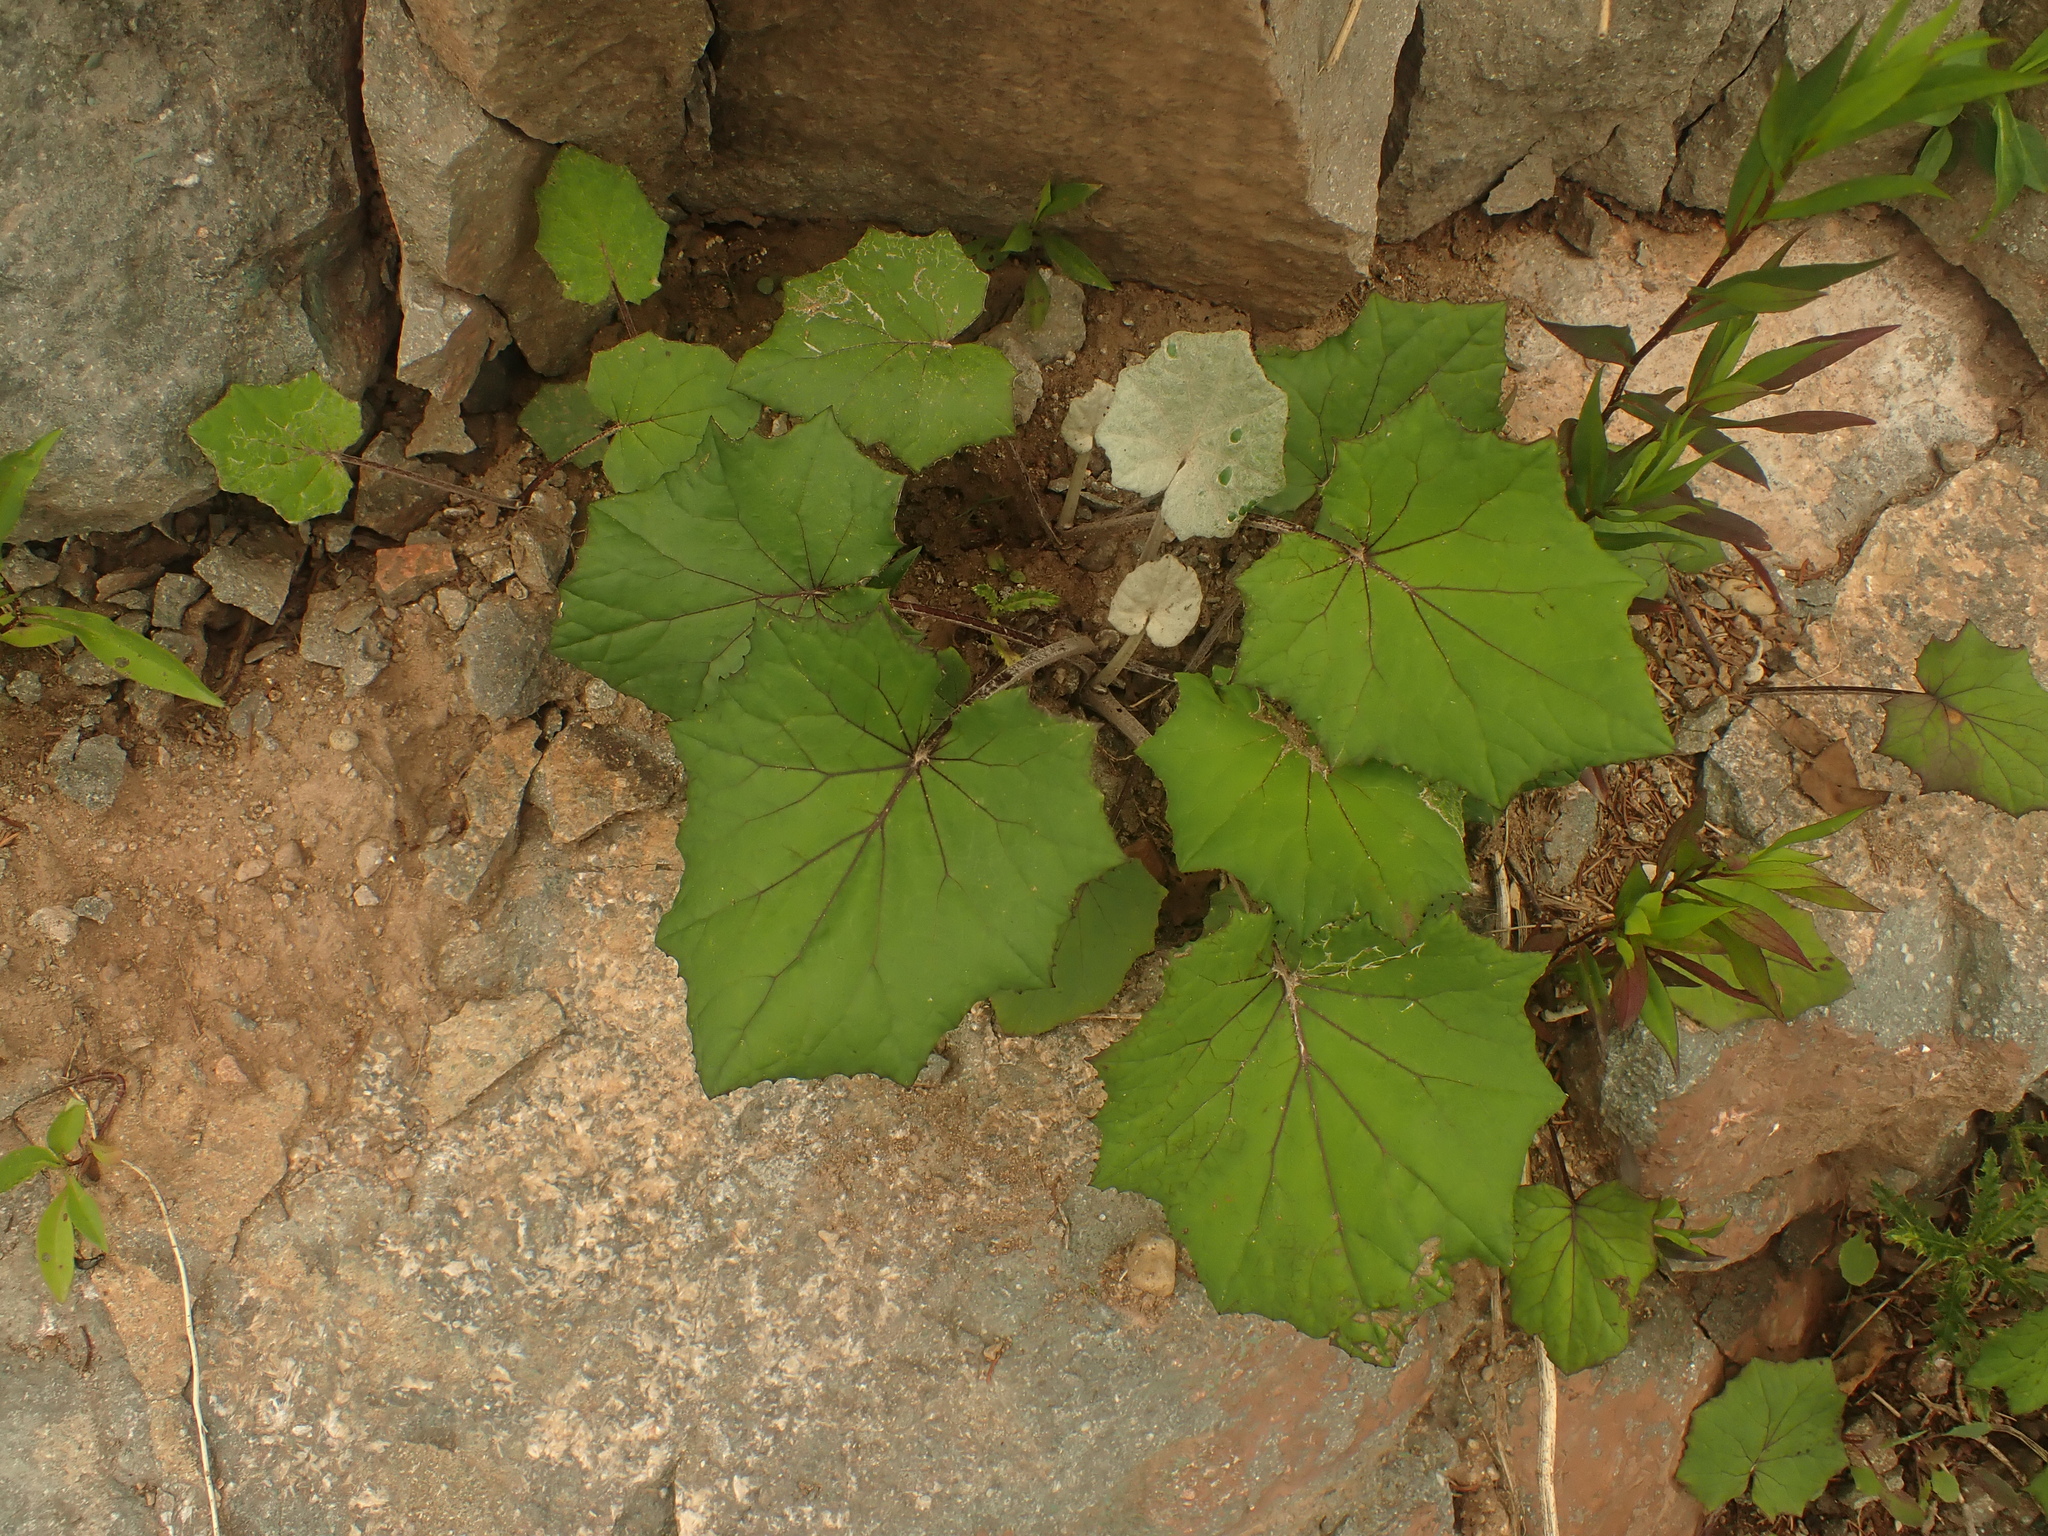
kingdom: Plantae
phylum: Tracheophyta
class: Magnoliopsida
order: Asterales
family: Asteraceae
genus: Tussilago
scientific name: Tussilago farfara
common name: Coltsfoot
